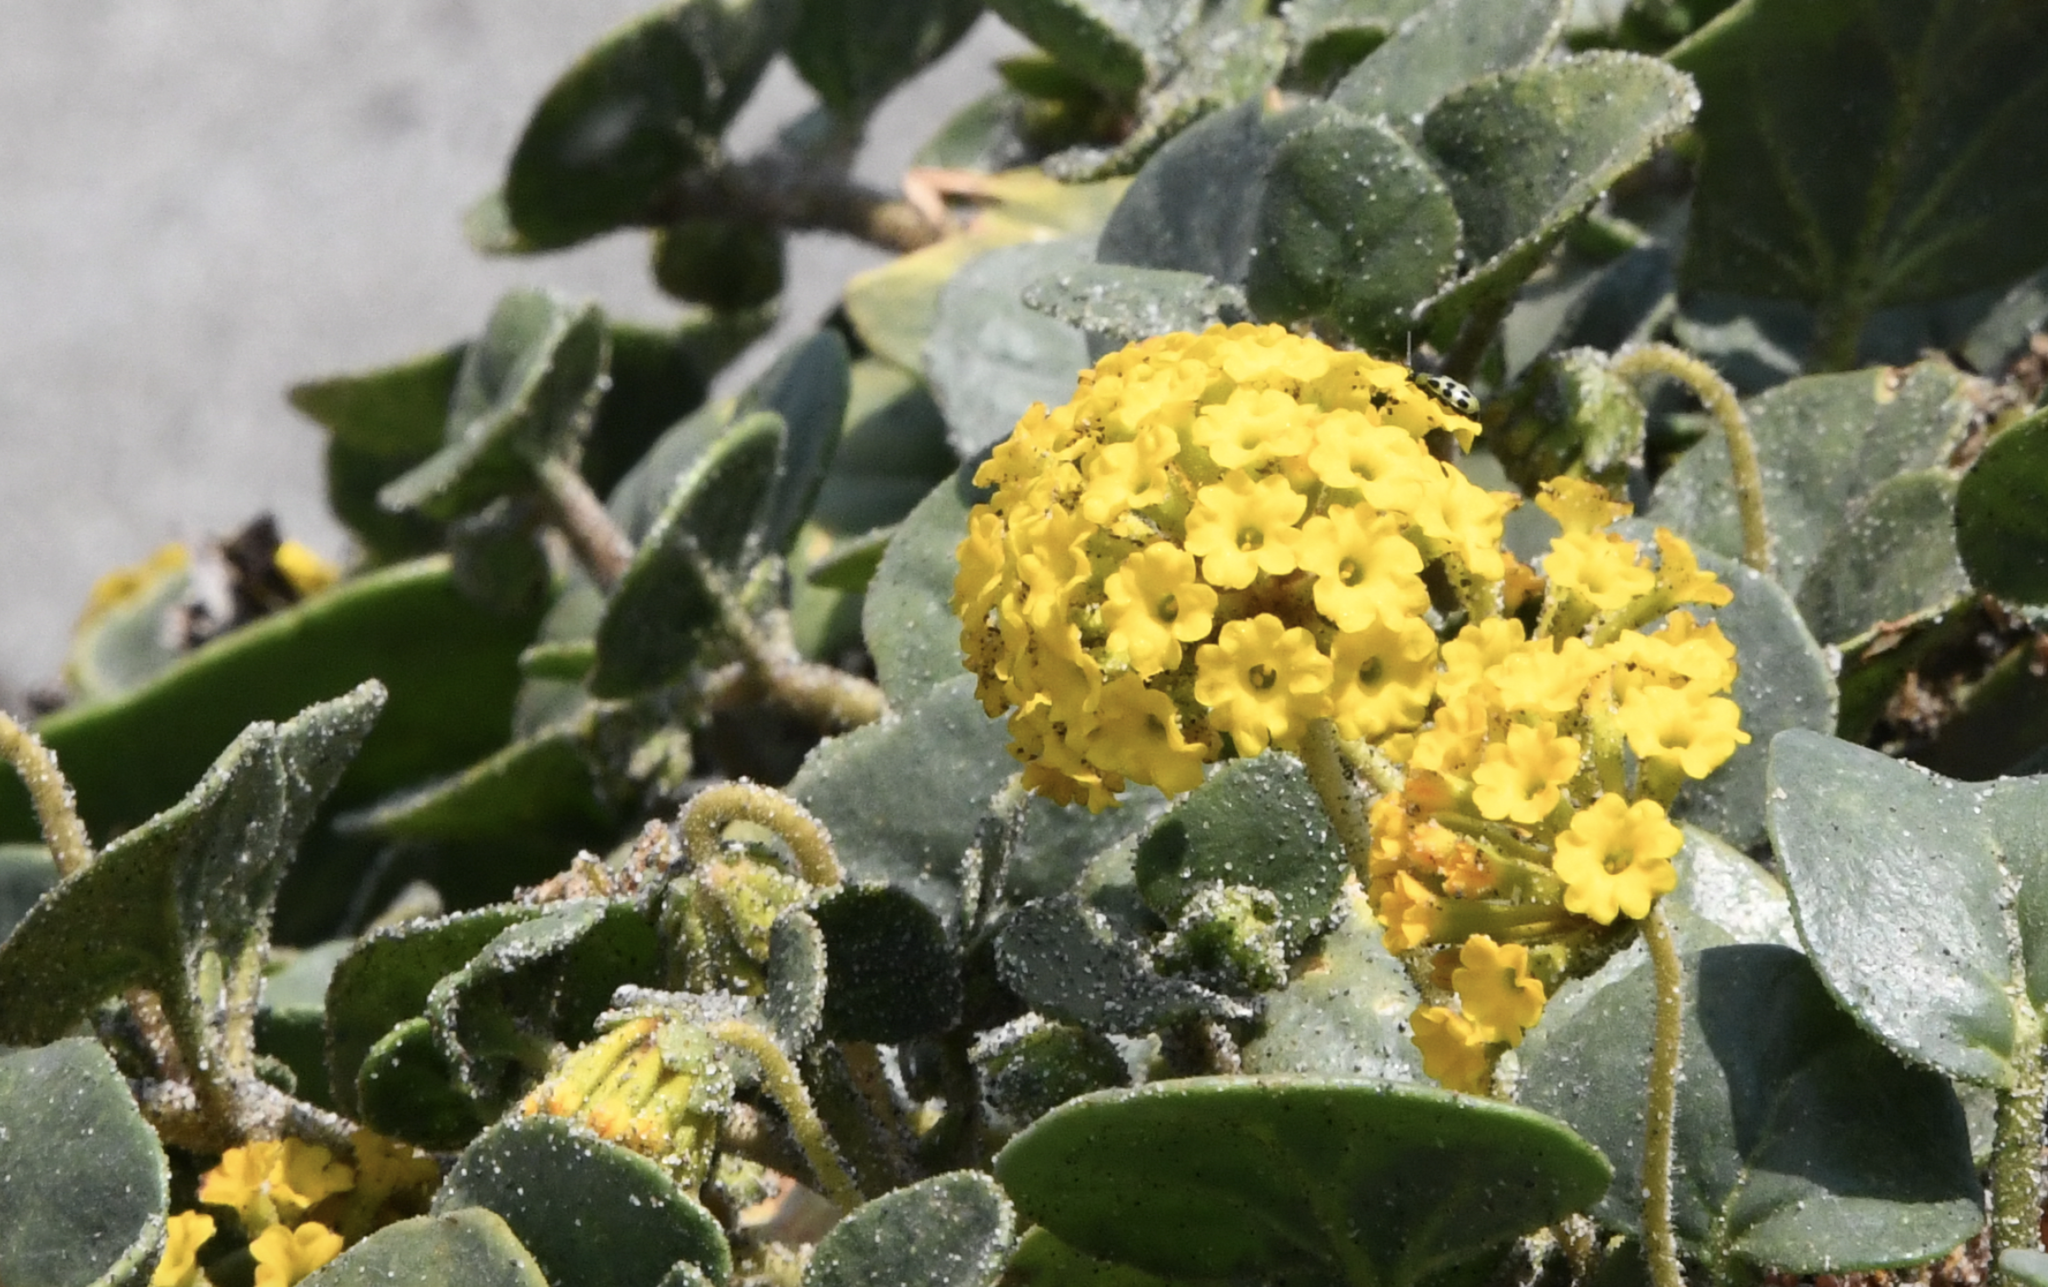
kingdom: Plantae
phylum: Tracheophyta
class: Magnoliopsida
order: Caryophyllales
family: Nyctaginaceae
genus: Abronia
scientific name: Abronia latifolia
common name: Yellow sand-verbena
